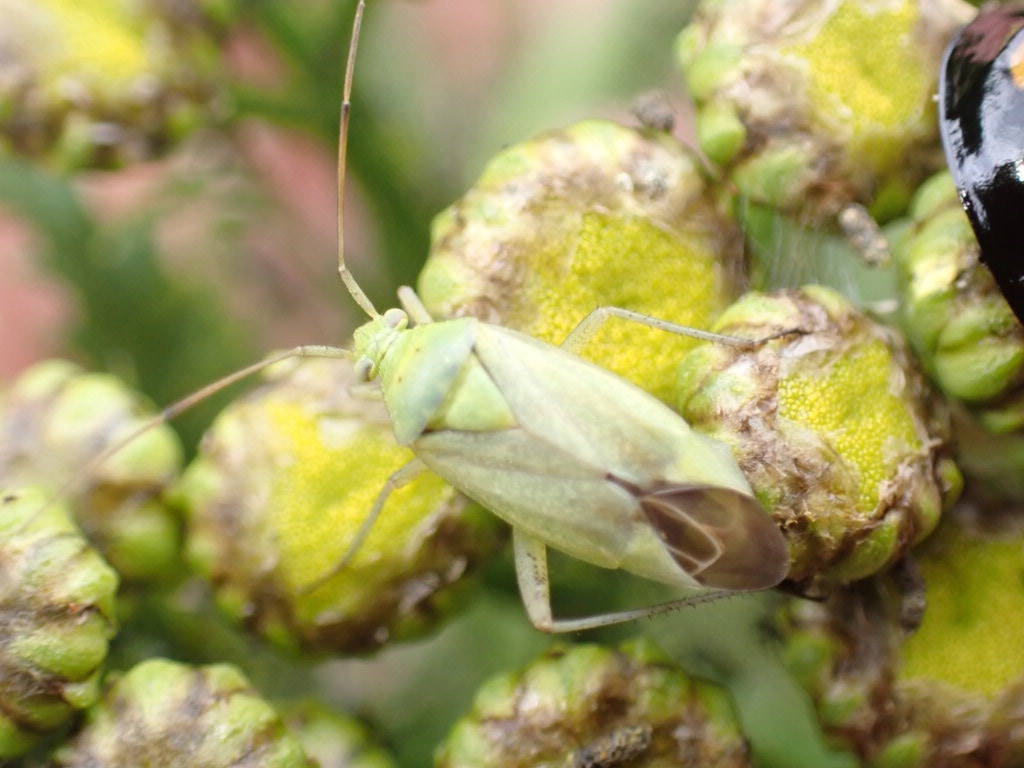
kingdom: Animalia
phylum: Arthropoda
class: Insecta
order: Hemiptera
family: Miridae
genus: Closterotomus
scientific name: Closterotomus norvegicus
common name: Plant bug
